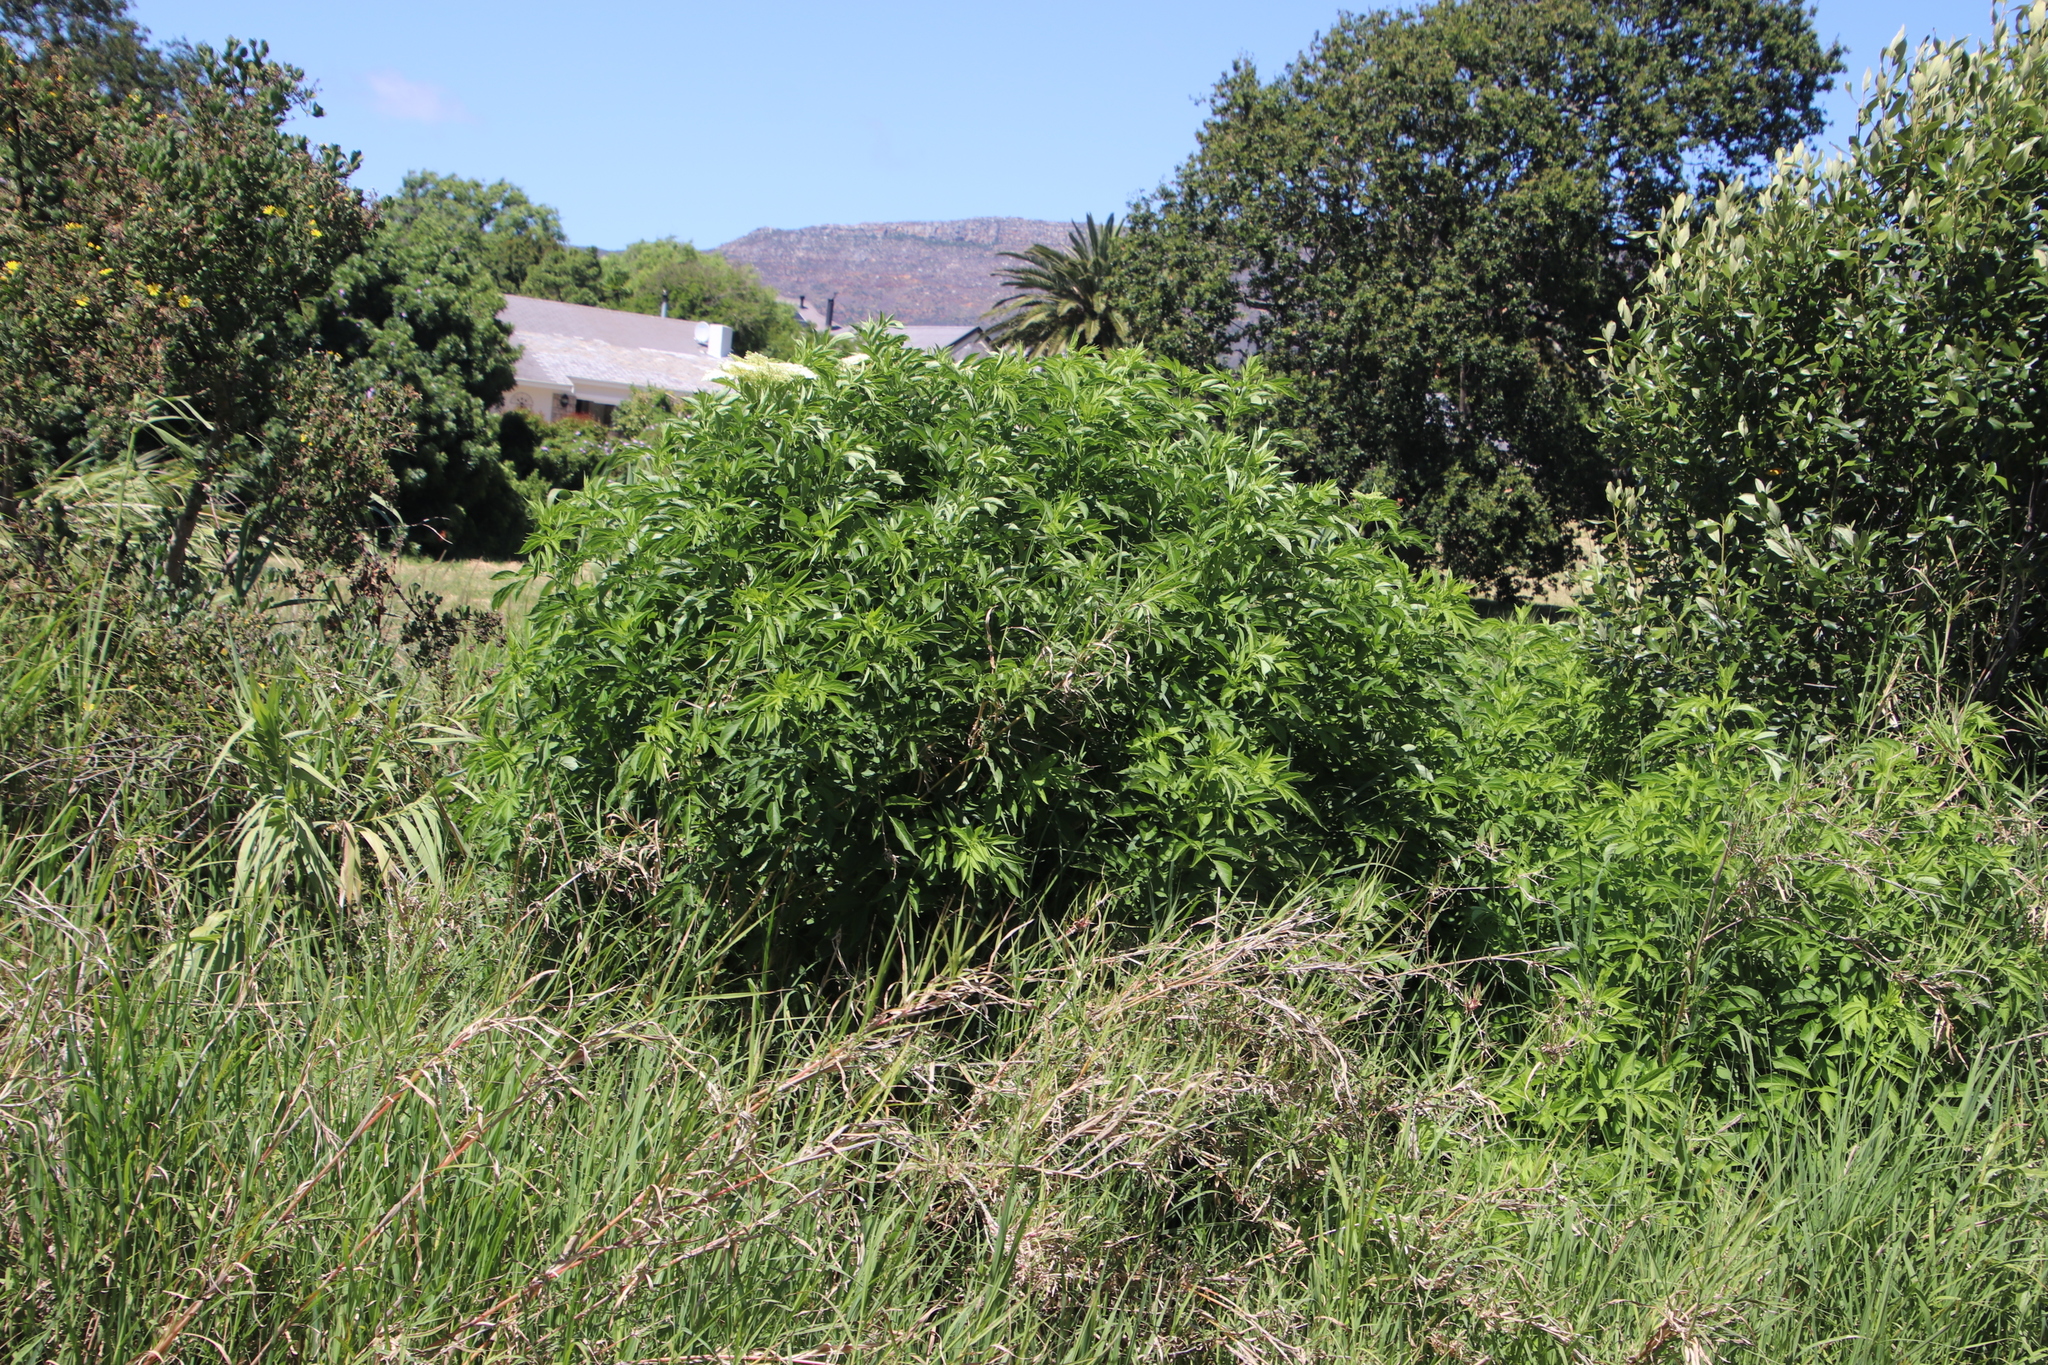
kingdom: Plantae
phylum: Tracheophyta
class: Magnoliopsida
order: Dipsacales
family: Viburnaceae
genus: Sambucus
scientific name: Sambucus nigra
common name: Elder
